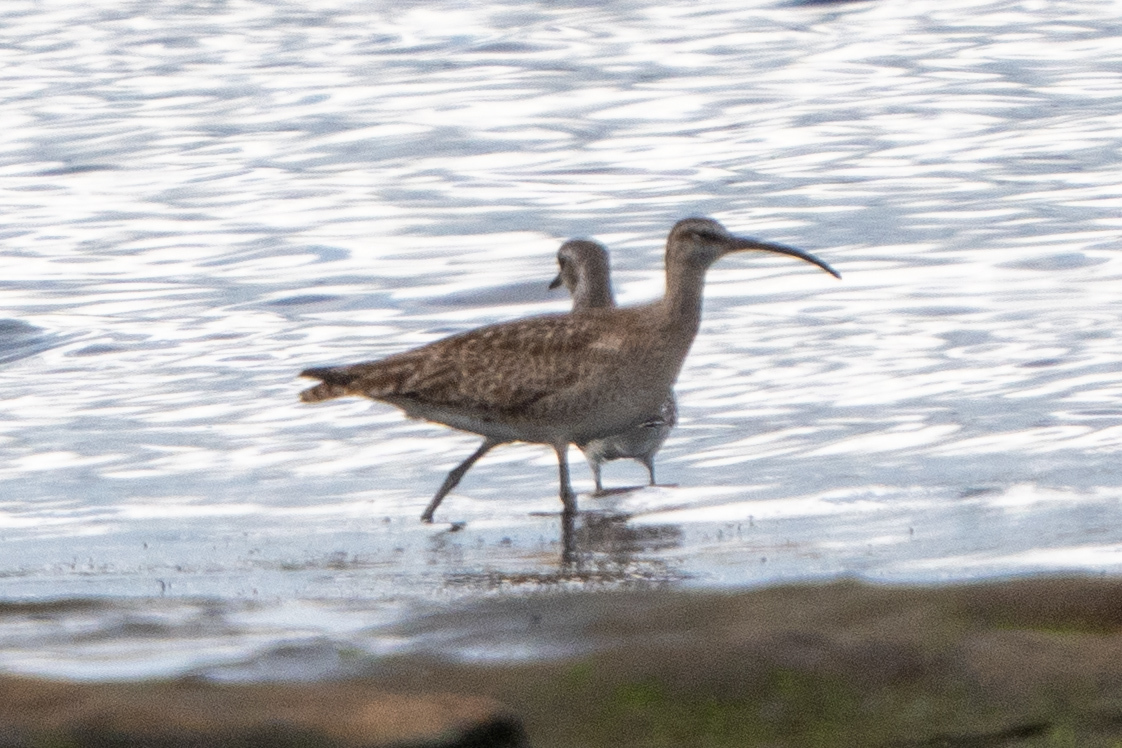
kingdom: Animalia
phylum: Chordata
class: Aves
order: Charadriiformes
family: Scolopacidae
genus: Numenius
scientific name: Numenius phaeopus
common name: Whimbrel
